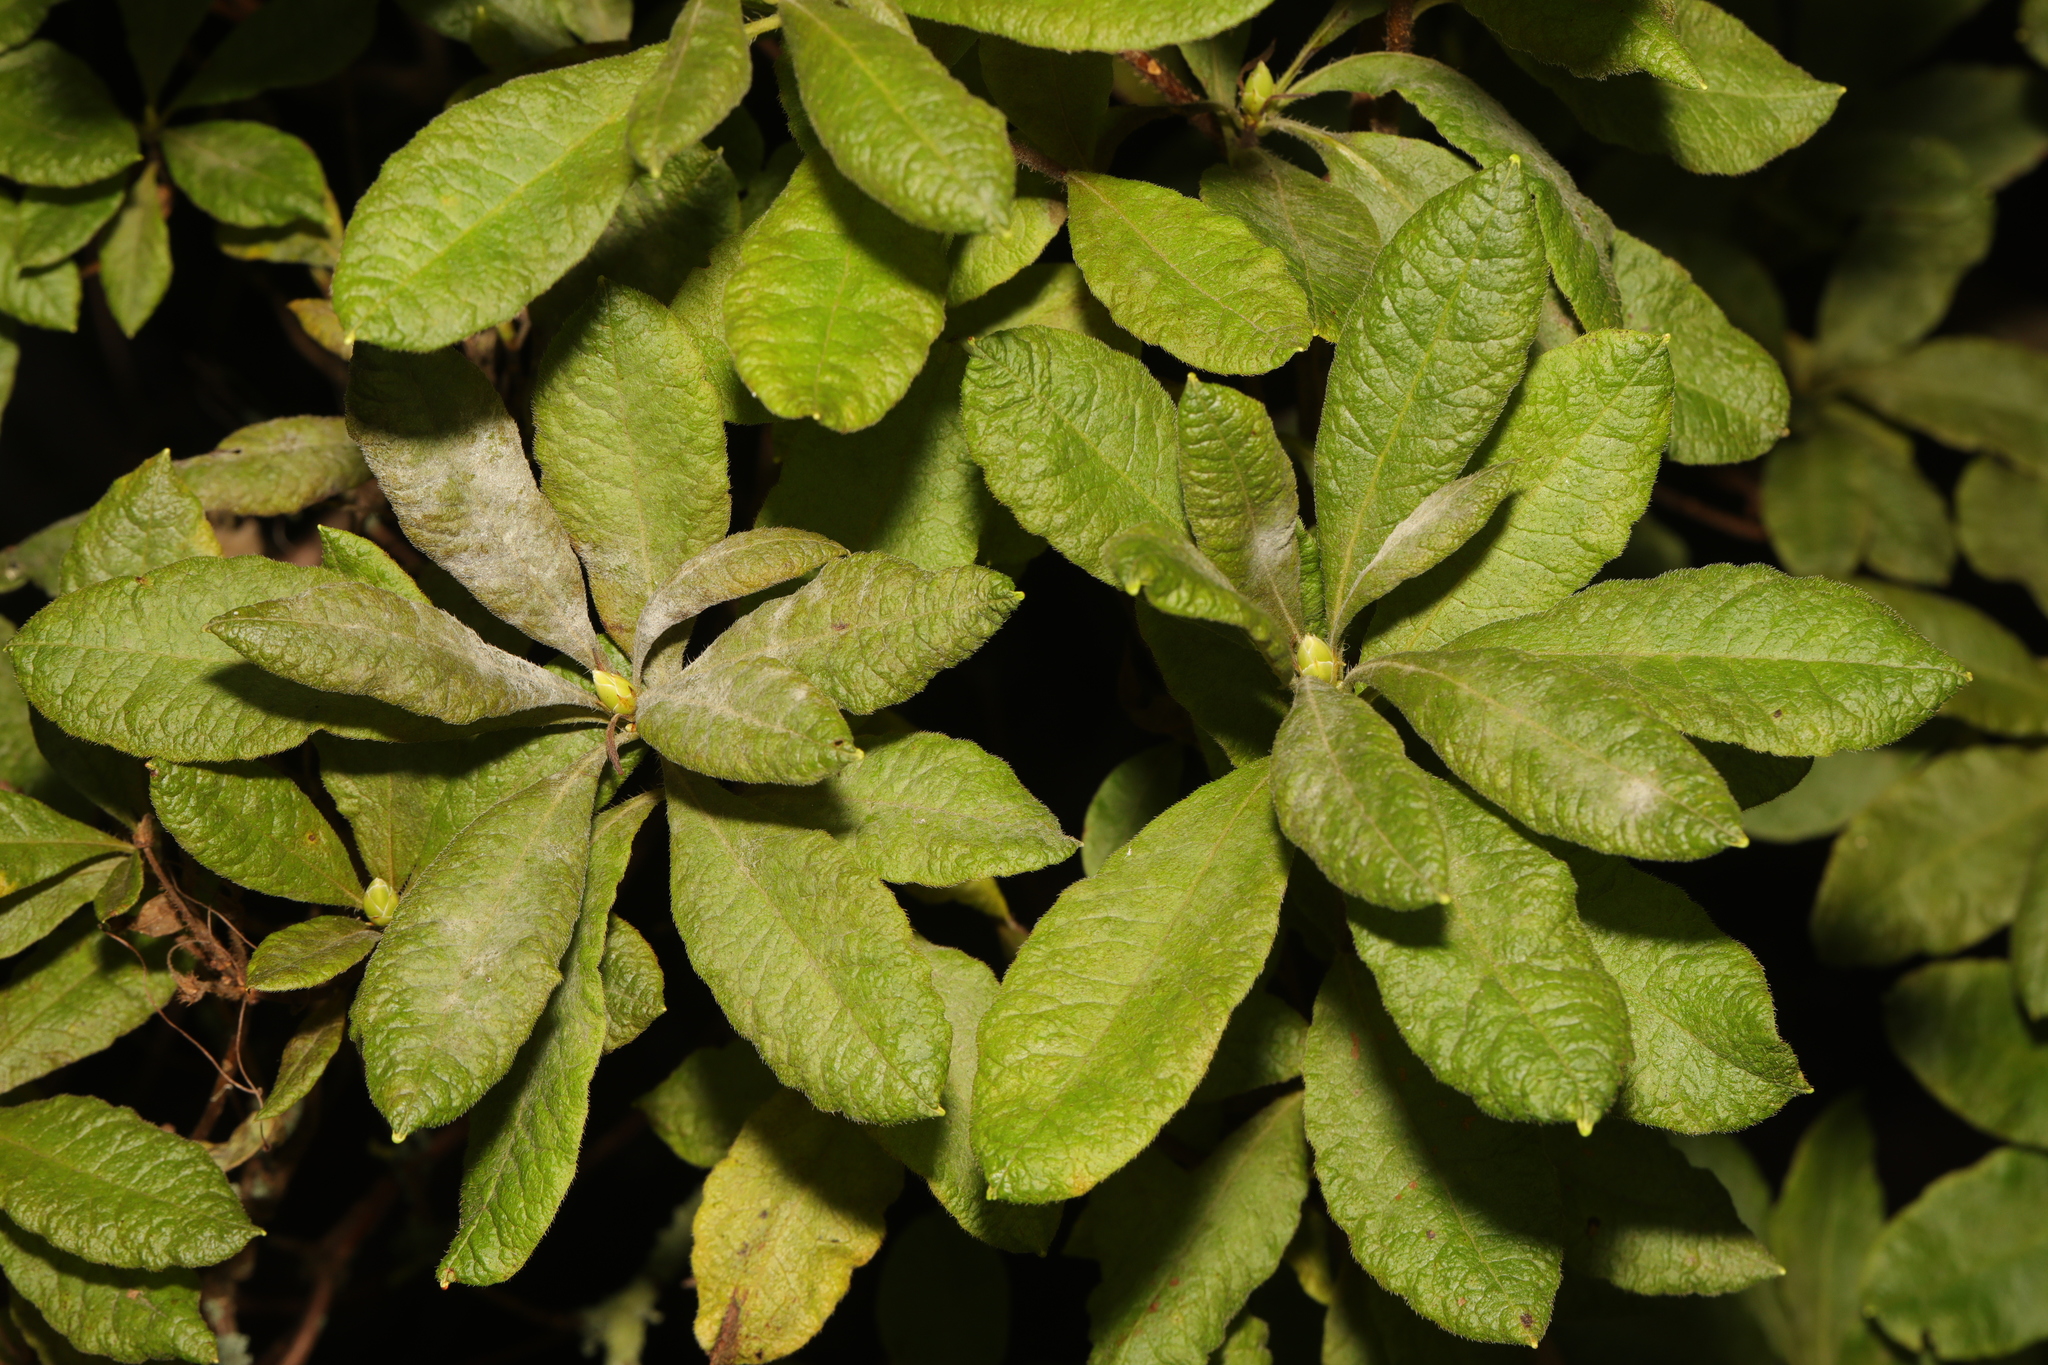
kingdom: Plantae
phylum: Tracheophyta
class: Magnoliopsida
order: Ericales
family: Ericaceae
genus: Rhododendron
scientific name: Rhododendron luteum
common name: Yellow azalea
